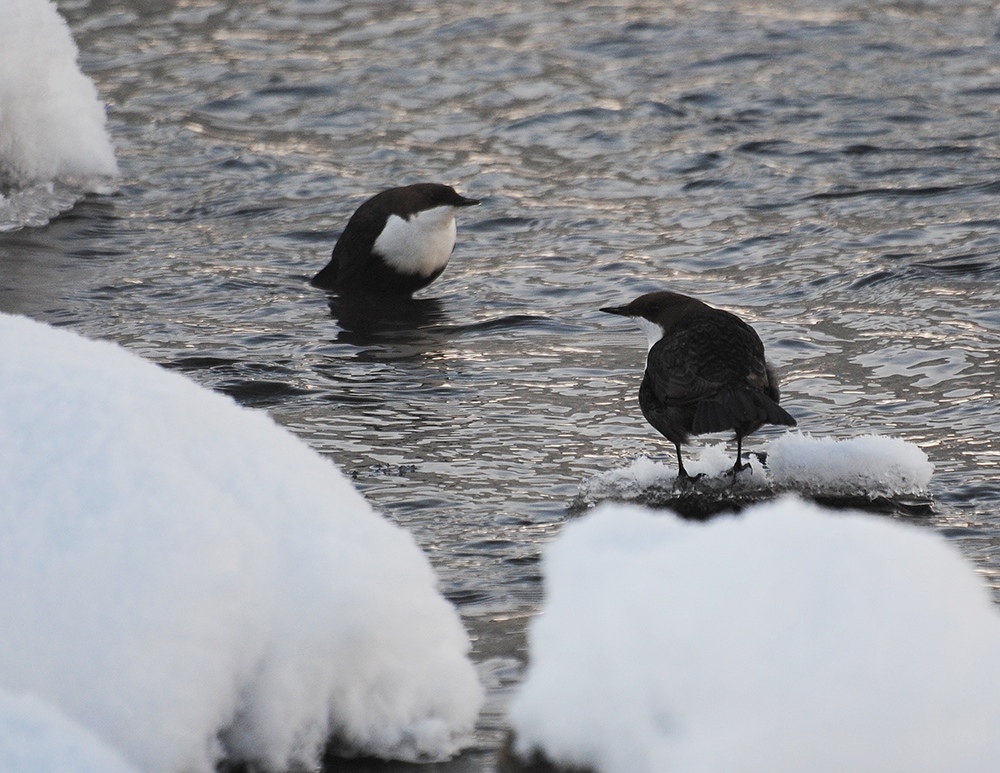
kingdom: Animalia
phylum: Chordata
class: Aves
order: Passeriformes
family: Cinclidae
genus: Cinclus
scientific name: Cinclus cinclus
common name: White-throated dipper
